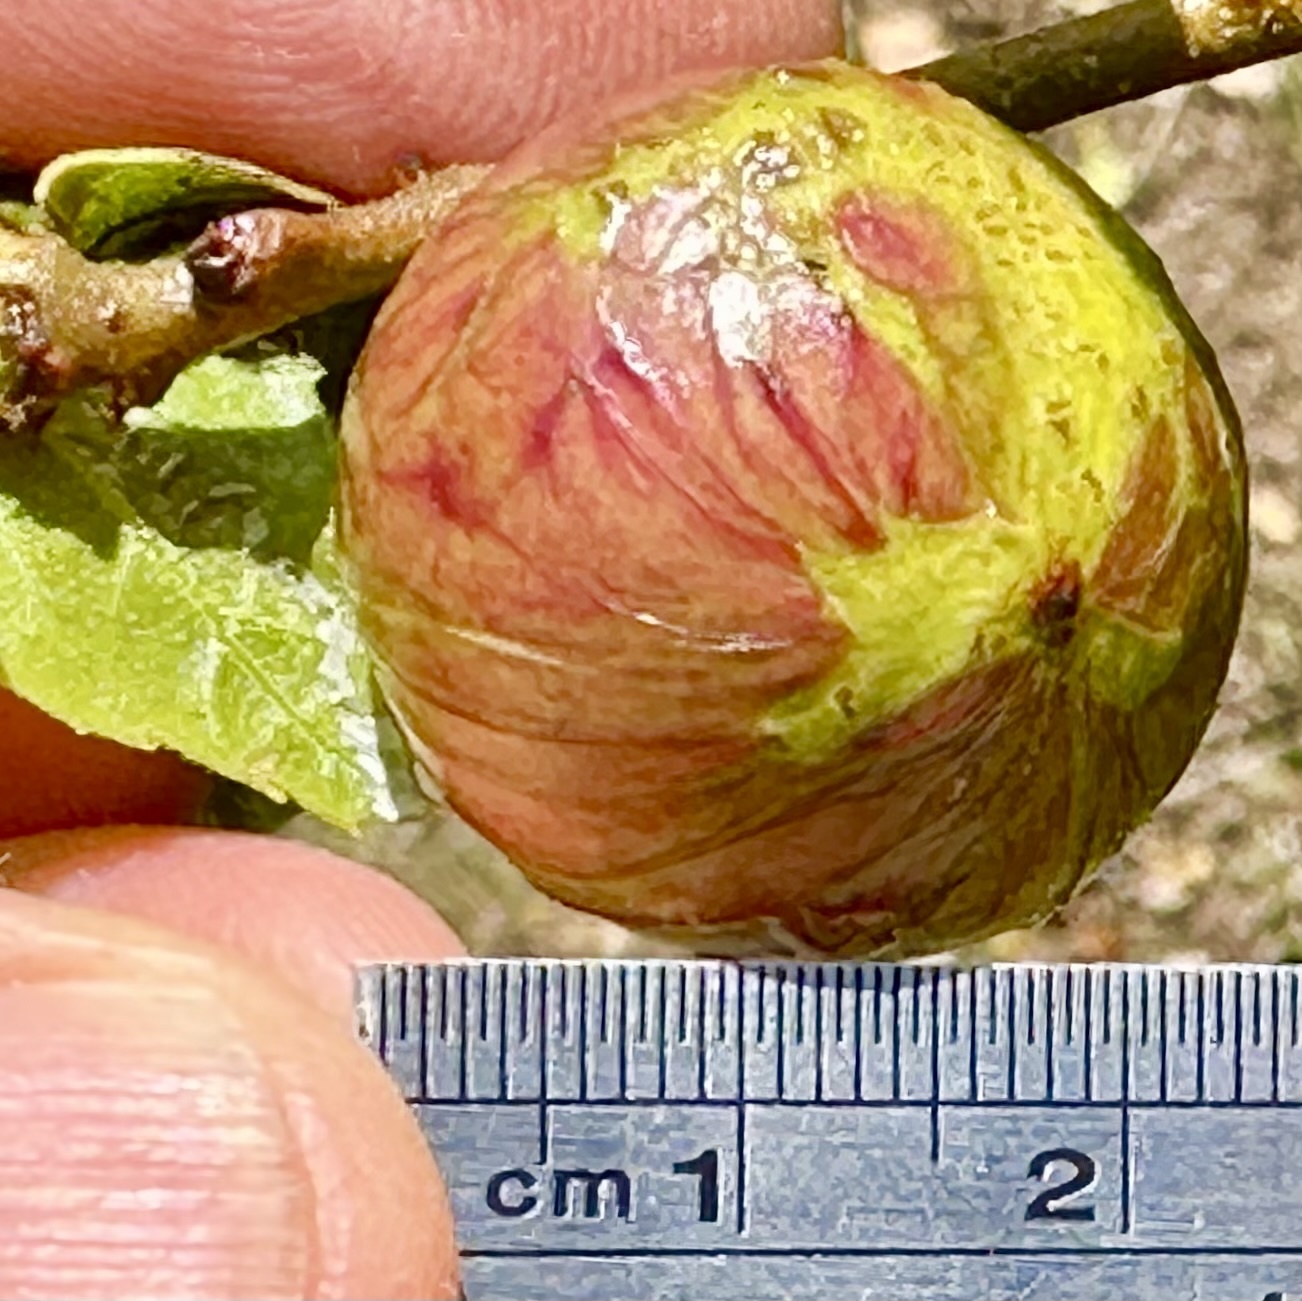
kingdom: Animalia
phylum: Arthropoda
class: Insecta
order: Hymenoptera
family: Cynipidae
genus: Amphibolips
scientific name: Amphibolips quercuspomiformis
